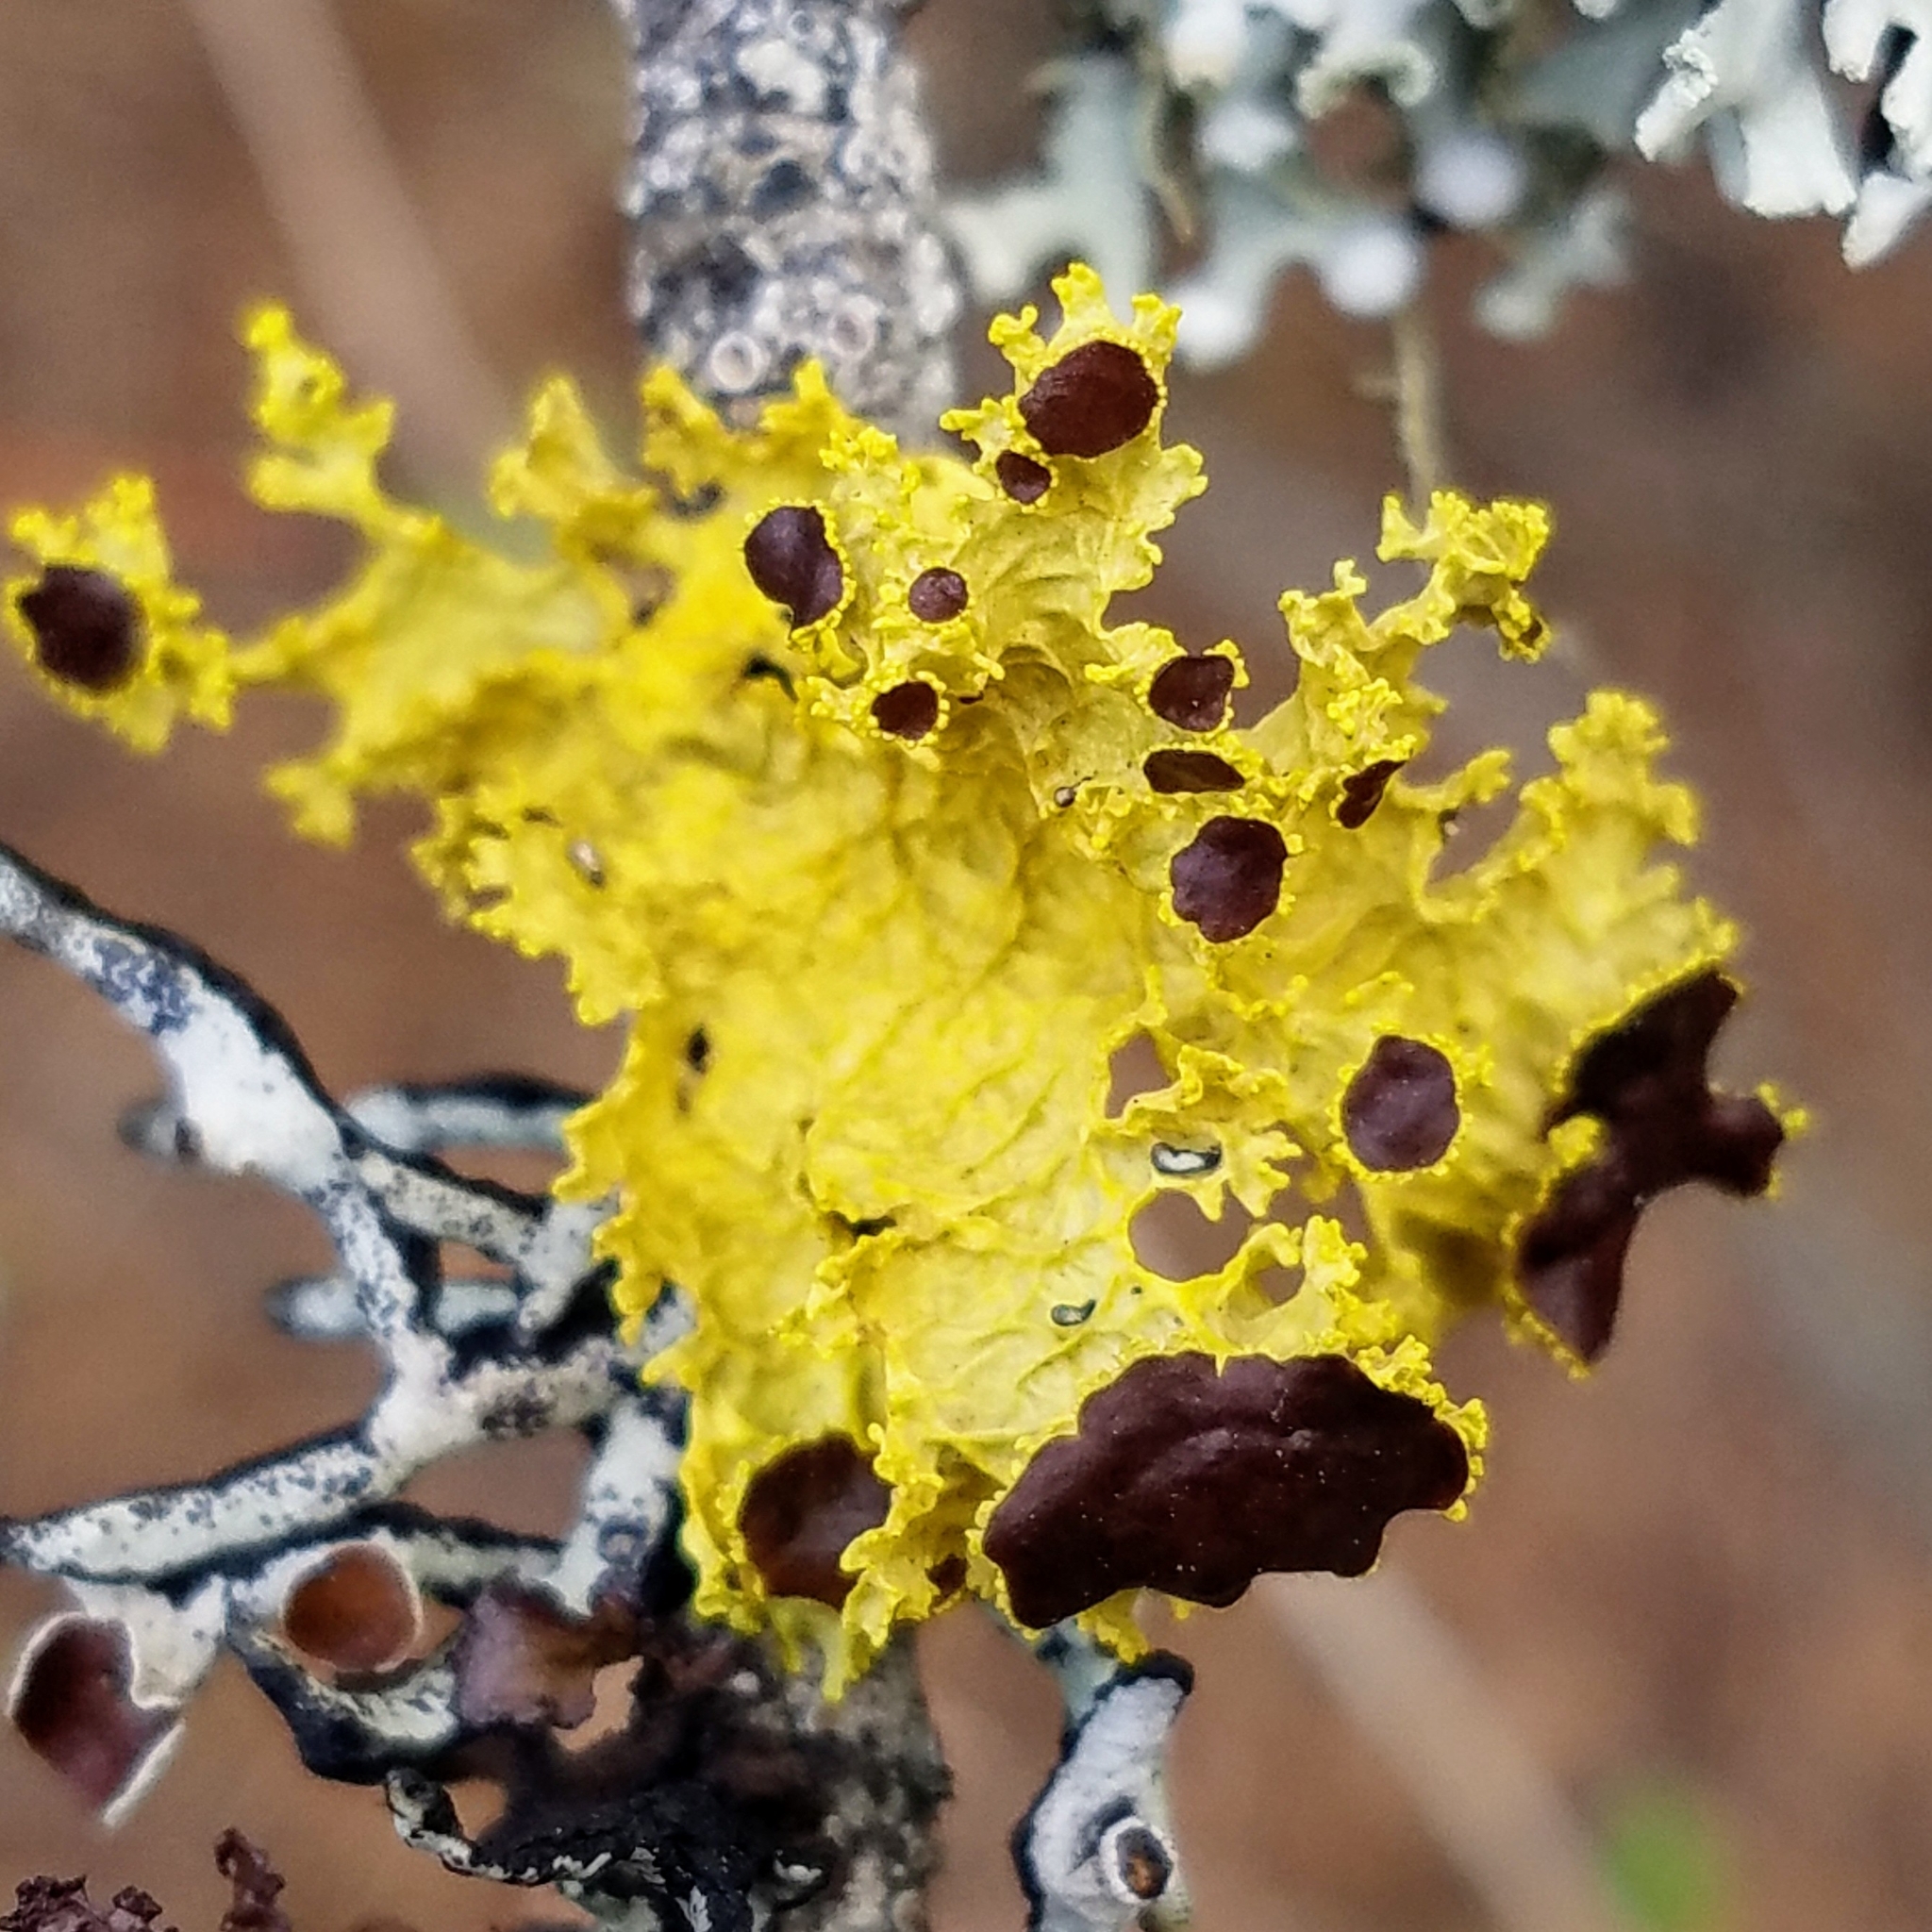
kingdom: Fungi
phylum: Ascomycota
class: Lecanoromycetes
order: Lecanorales
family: Parmeliaceae
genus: Vulpicida
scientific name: Vulpicida canadensis
